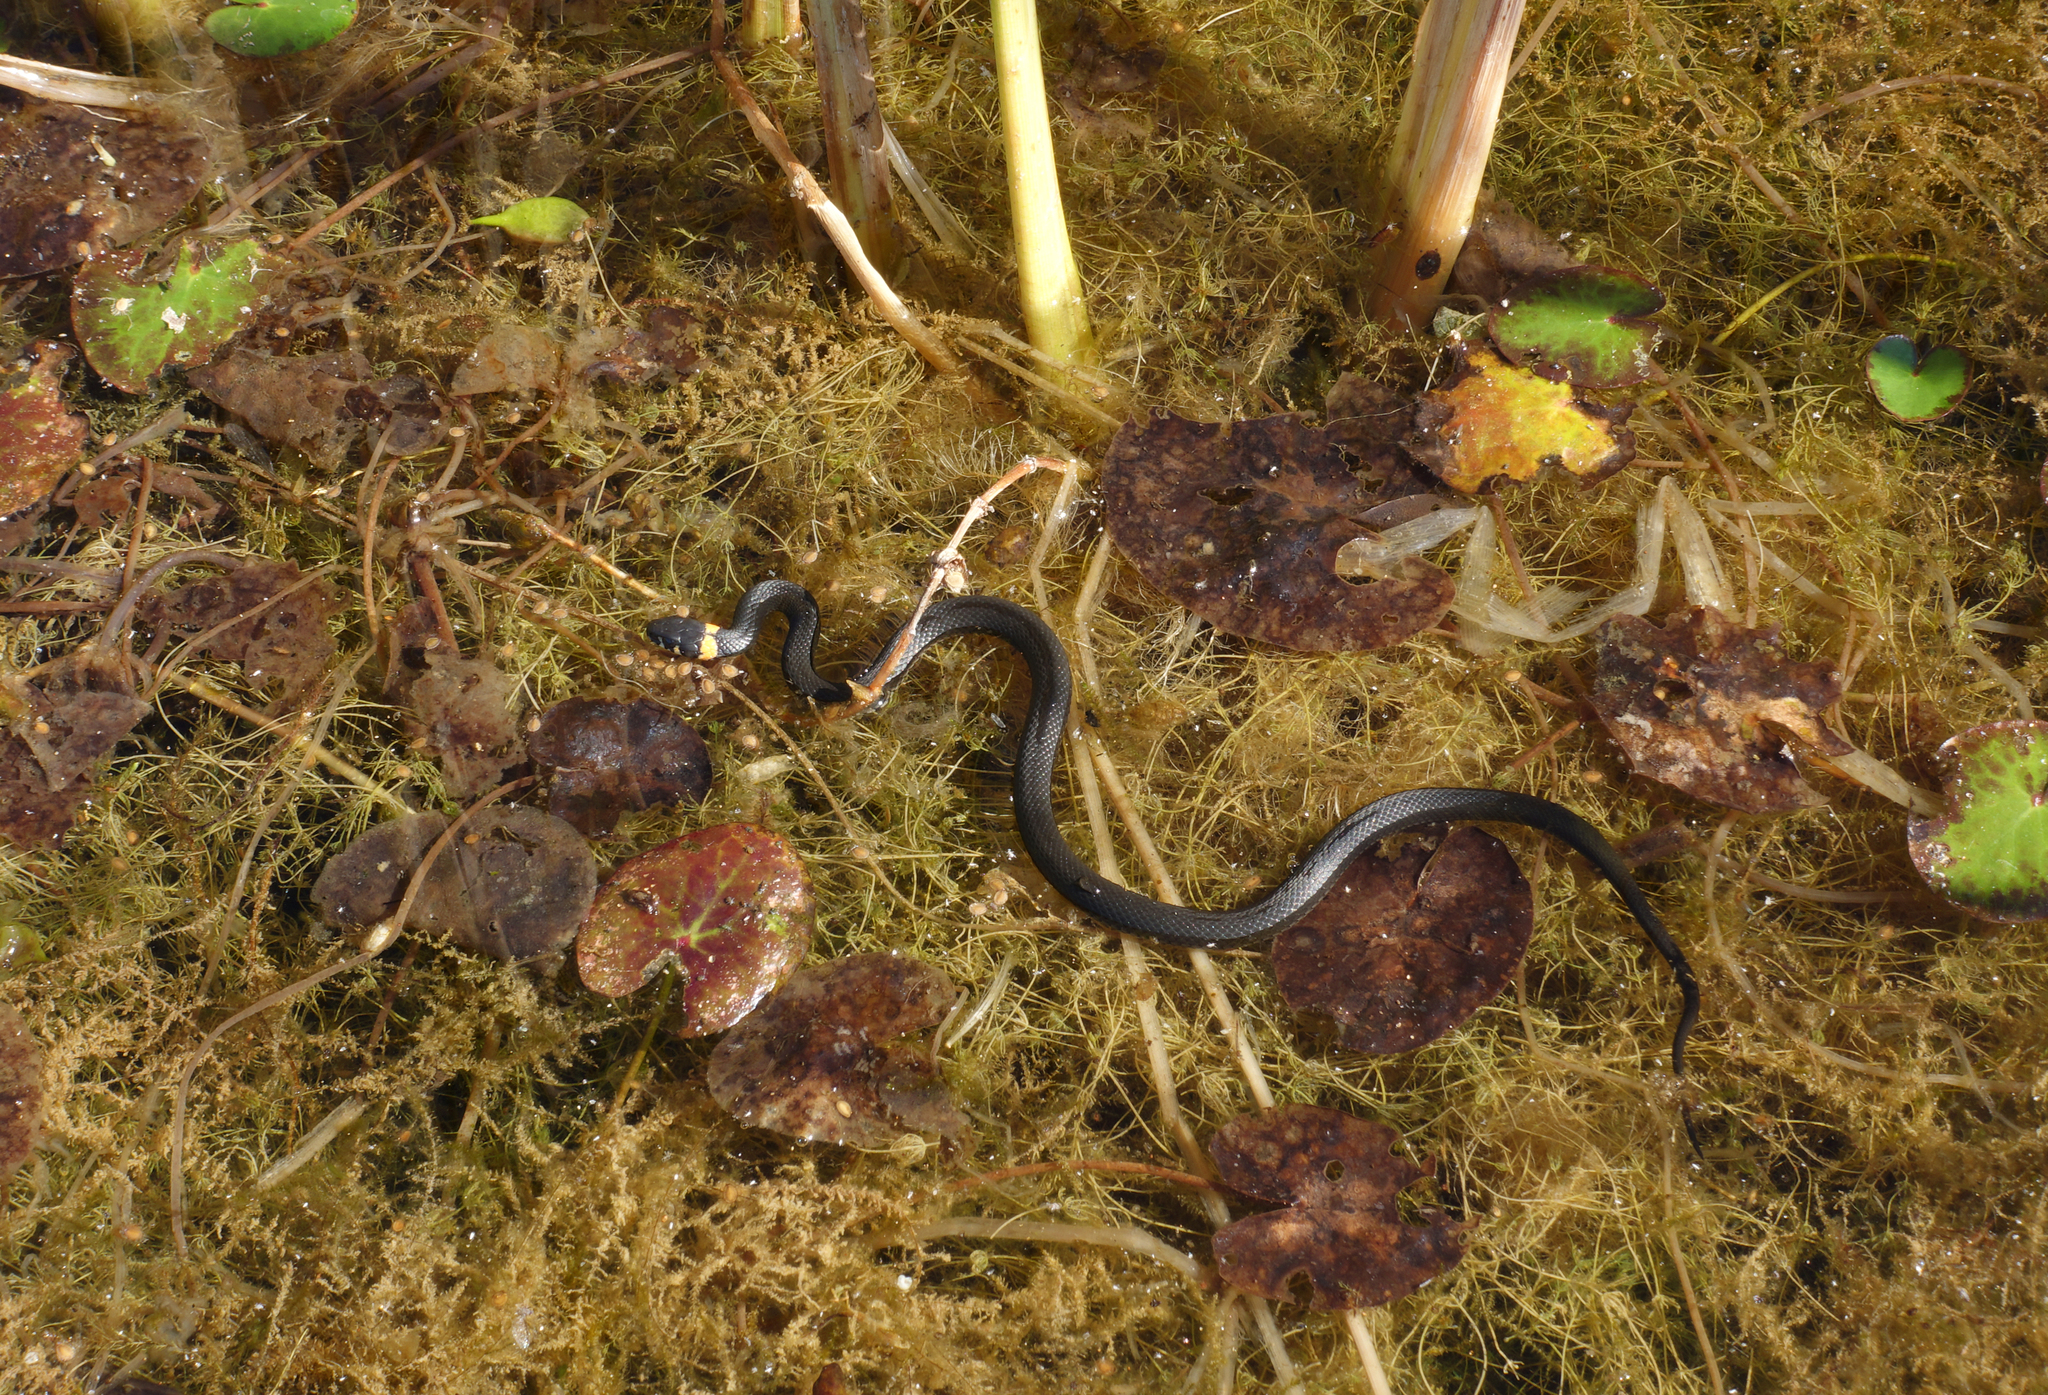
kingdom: Animalia
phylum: Chordata
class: Squamata
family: Colubridae
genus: Natrix
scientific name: Natrix natrix
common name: Grass snake
